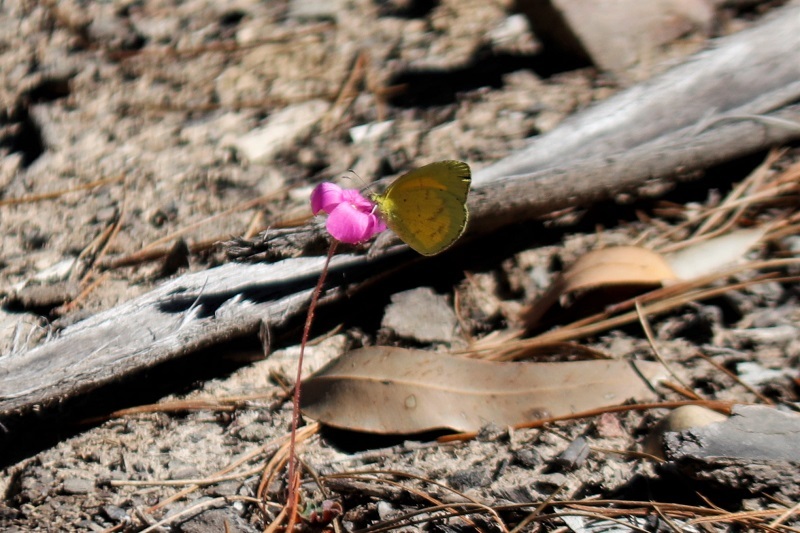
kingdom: Animalia
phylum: Arthropoda
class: Insecta
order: Lepidoptera
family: Pieridae
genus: Eurema
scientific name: Eurema brigitta
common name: Small grass yellow
